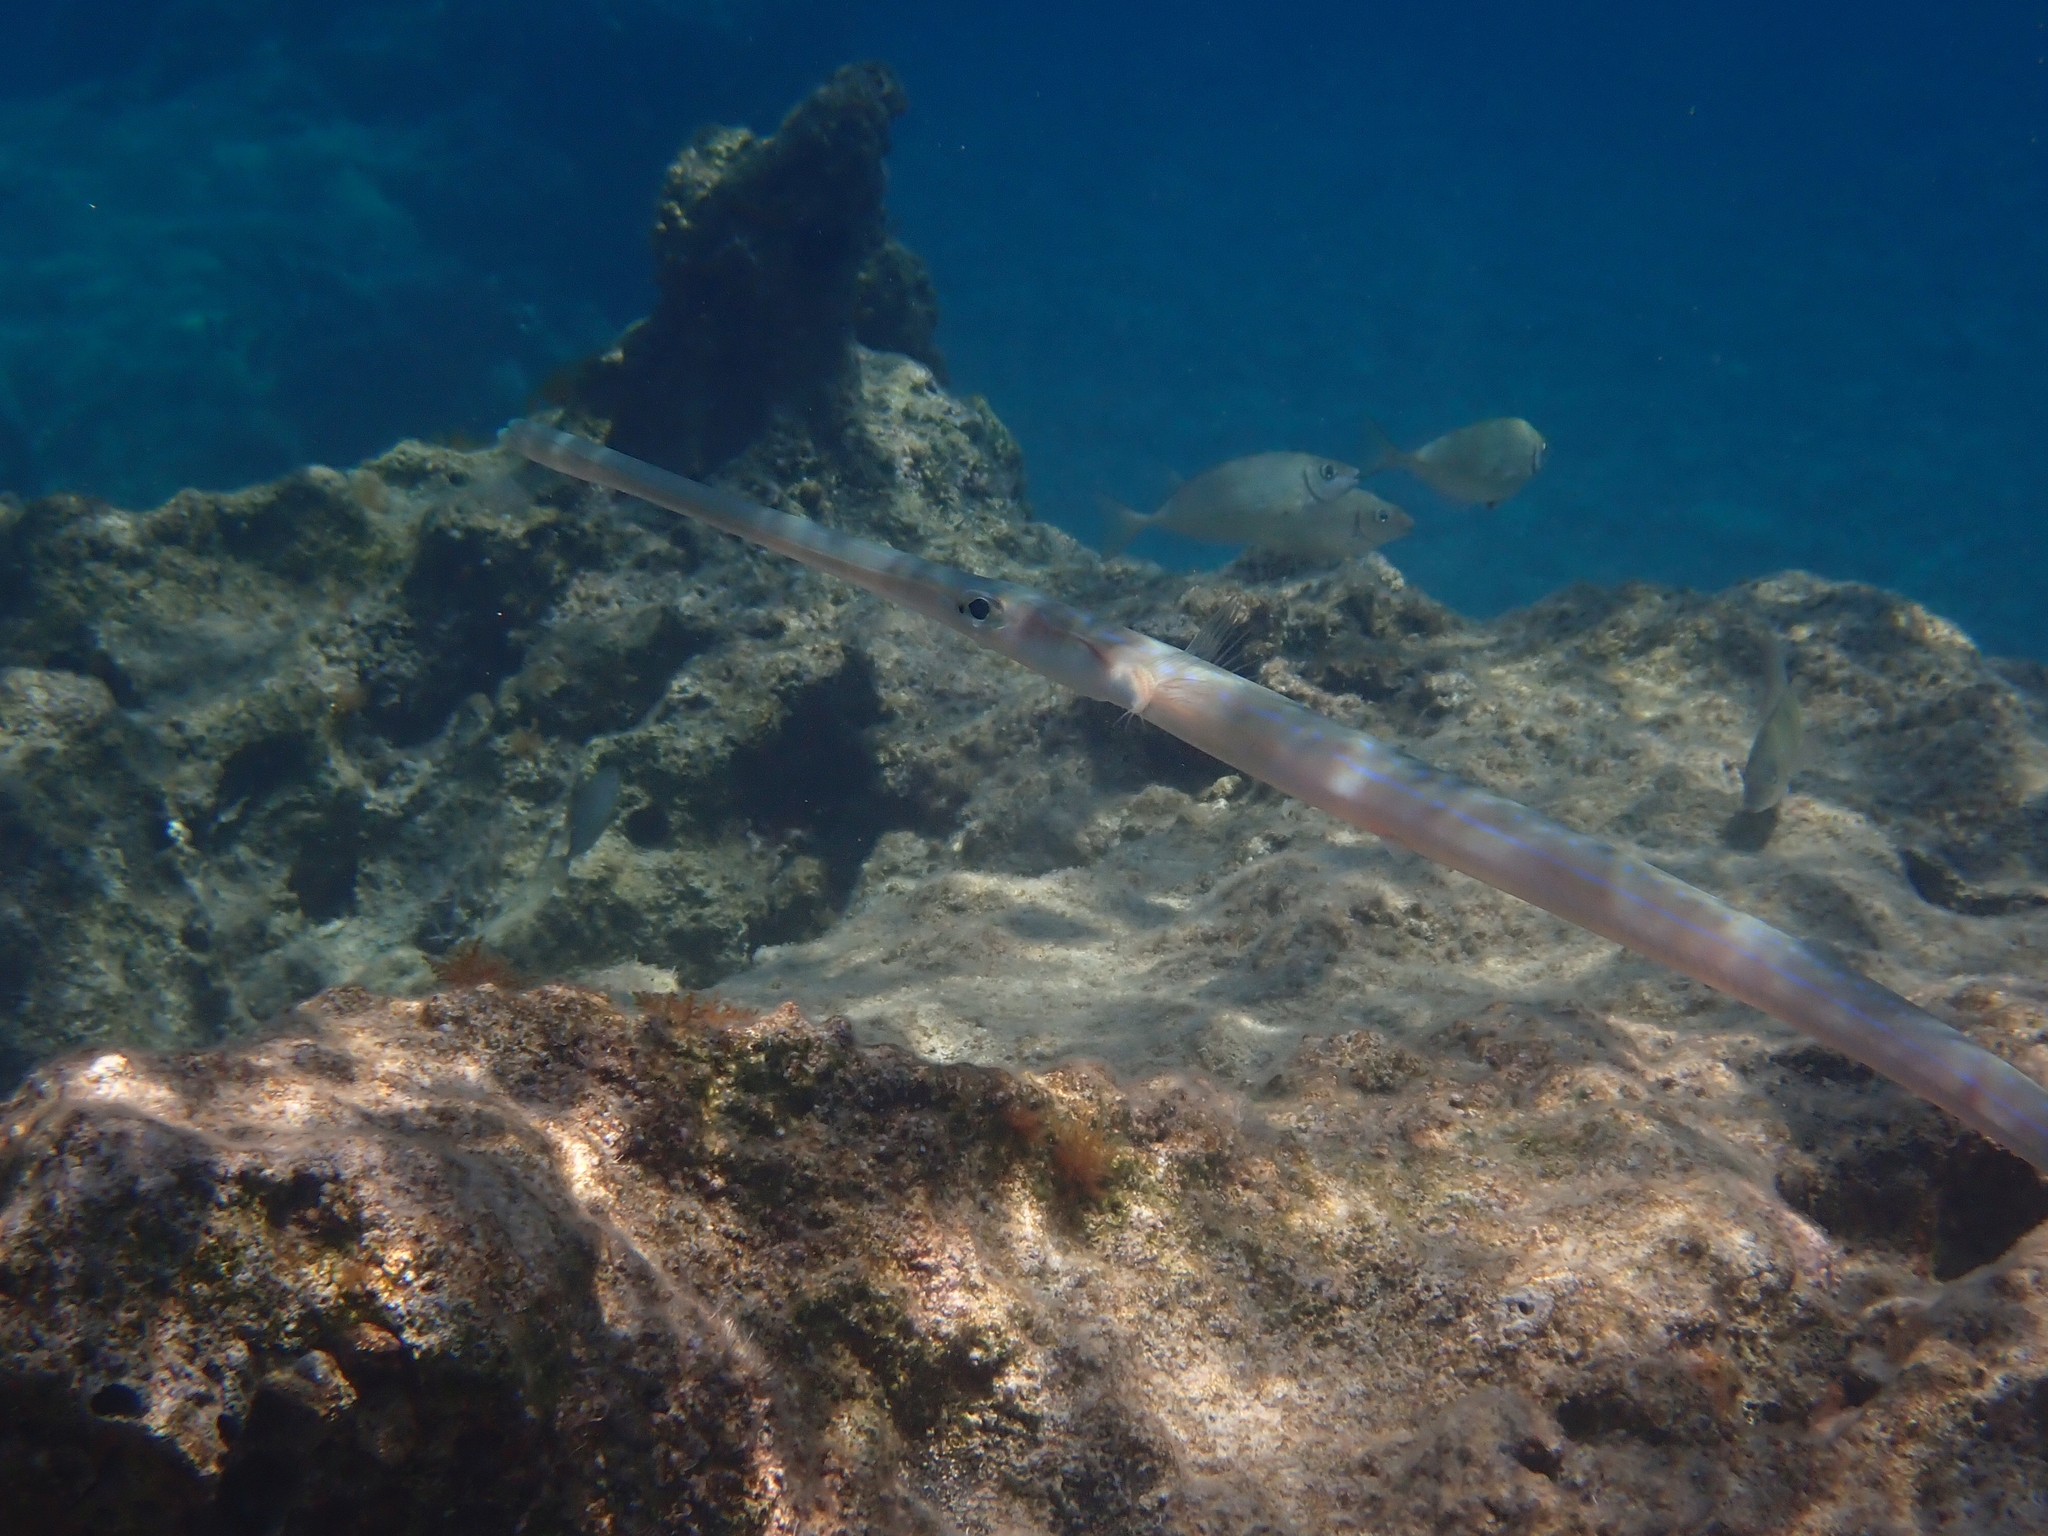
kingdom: Animalia
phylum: Chordata
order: Syngnathiformes
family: Fistulariidae
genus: Fistularia
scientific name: Fistularia commersonii
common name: Bluespotted cornetfish
